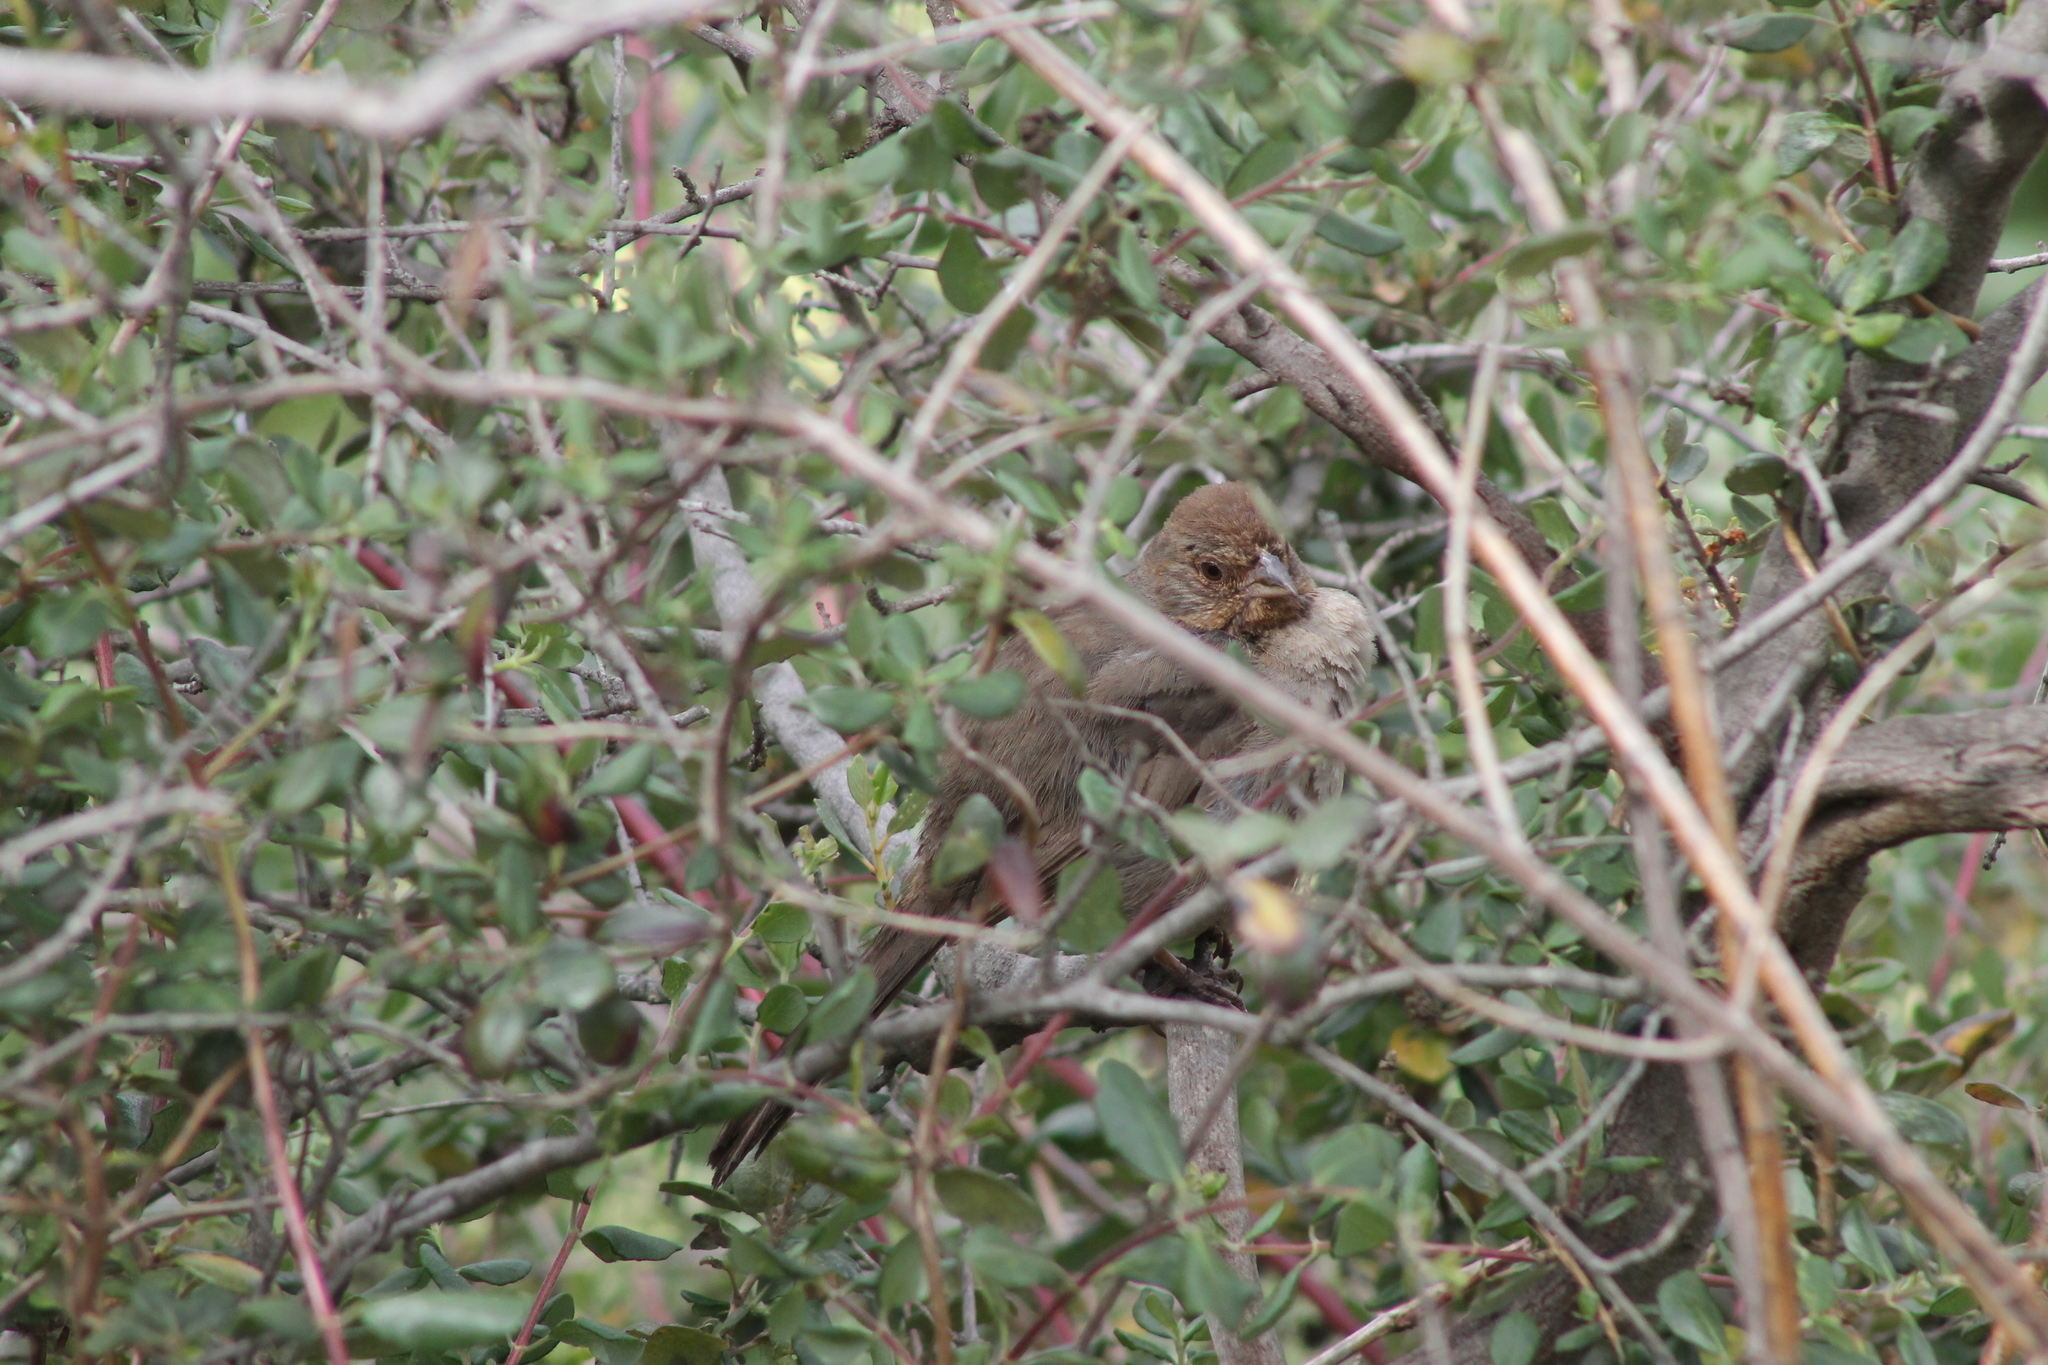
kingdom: Animalia
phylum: Chordata
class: Aves
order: Passeriformes
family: Passerellidae
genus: Melozone
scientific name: Melozone crissalis
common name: California towhee
